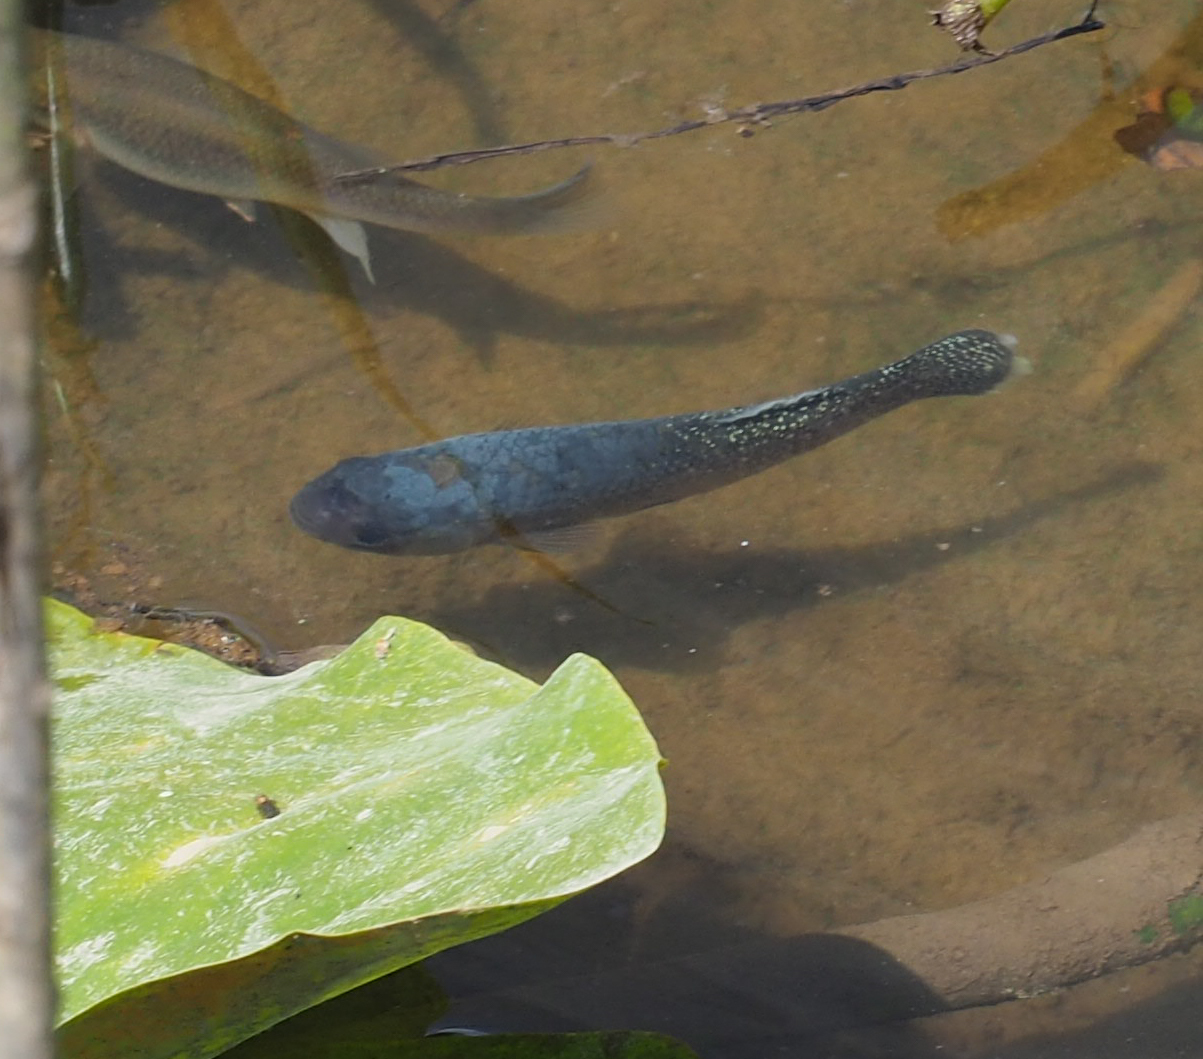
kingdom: Animalia
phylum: Chordata
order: Cyprinodontiformes
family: Fundulidae
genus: Fundulus
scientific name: Fundulus heteroclitus
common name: Mummichog
